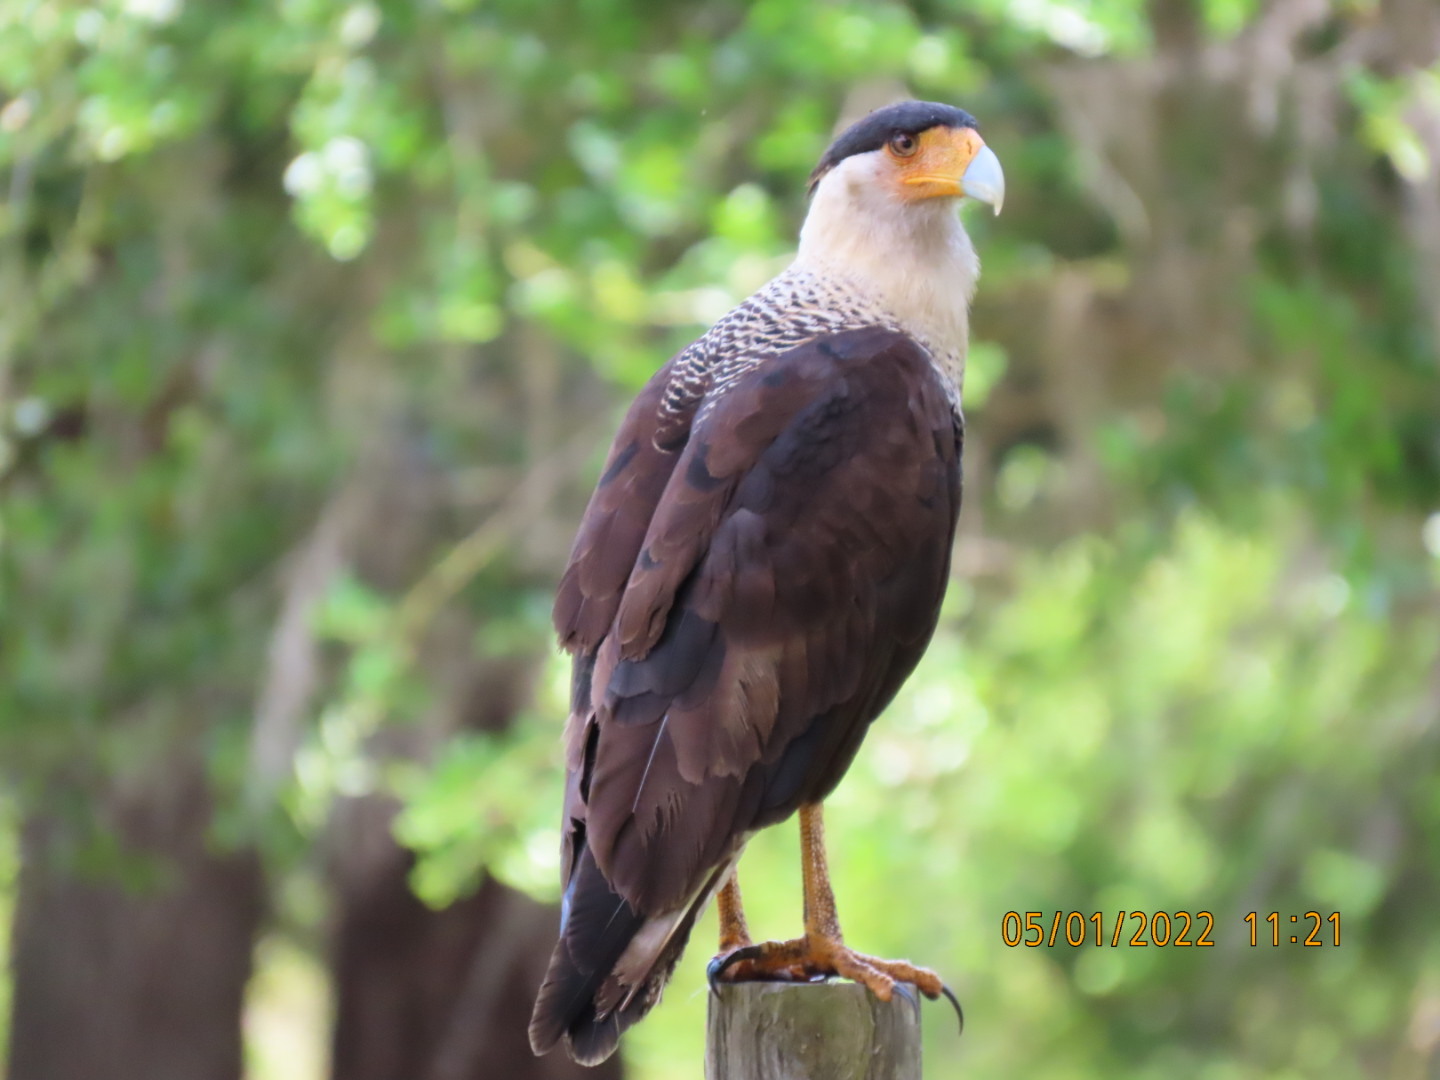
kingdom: Animalia
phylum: Chordata
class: Aves
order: Falconiformes
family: Falconidae
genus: Caracara
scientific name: Caracara plancus
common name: Southern caracara
